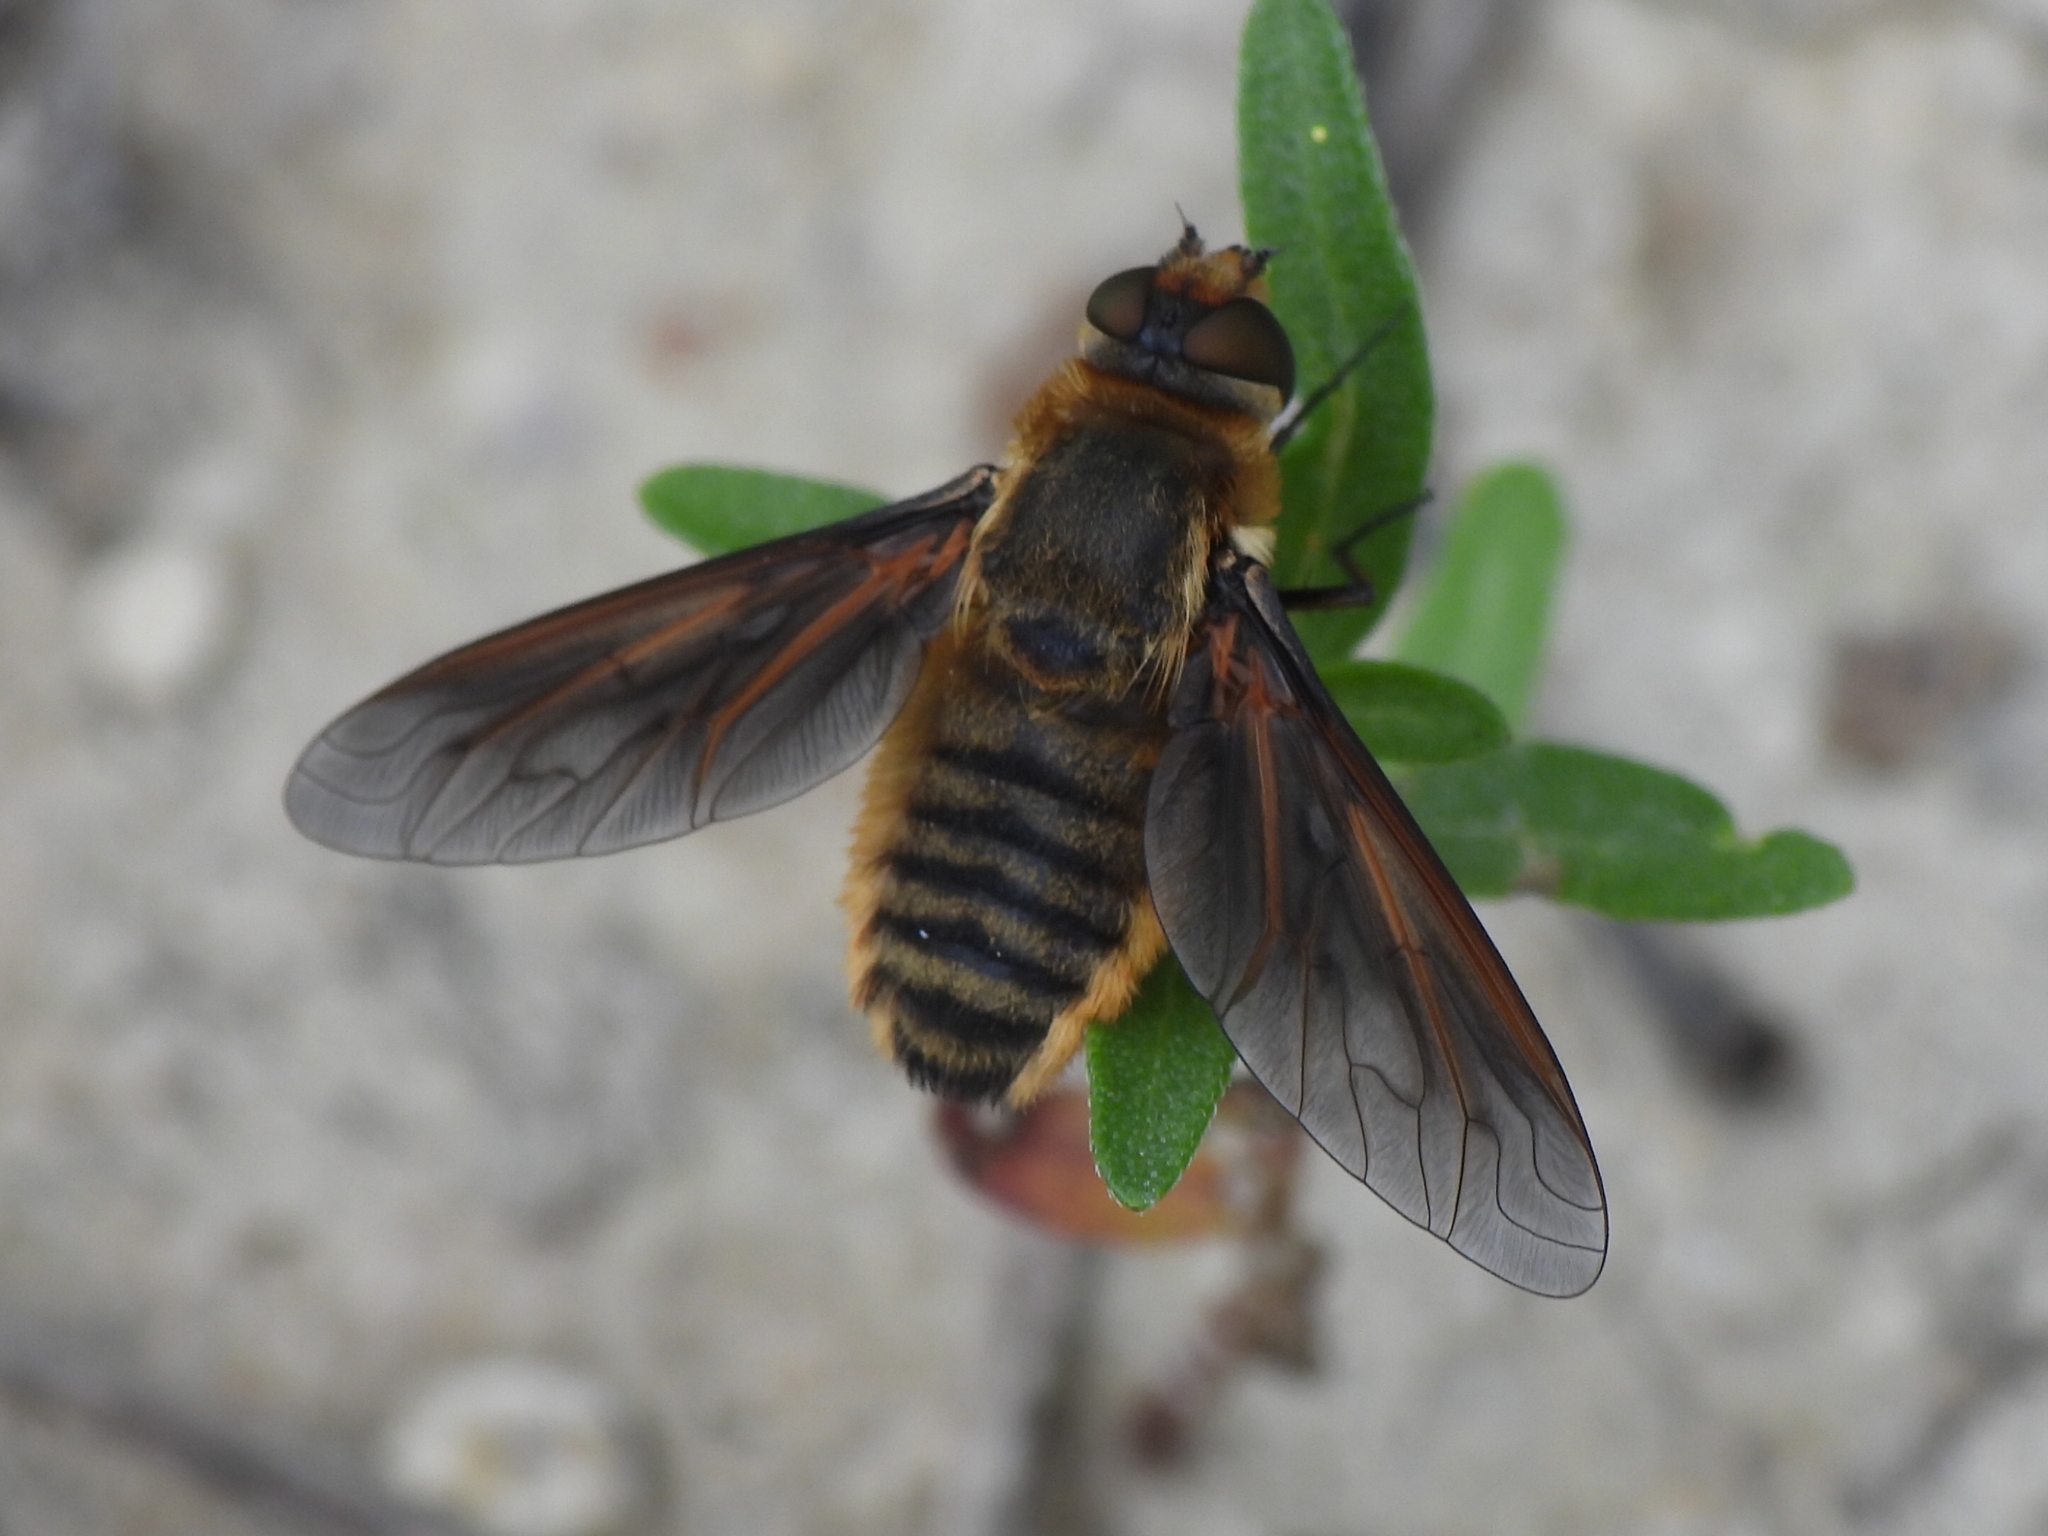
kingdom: Animalia
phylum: Arthropoda
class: Insecta
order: Diptera
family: Bombyliidae
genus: Poecilanthrax
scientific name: Poecilanthrax lucifer
